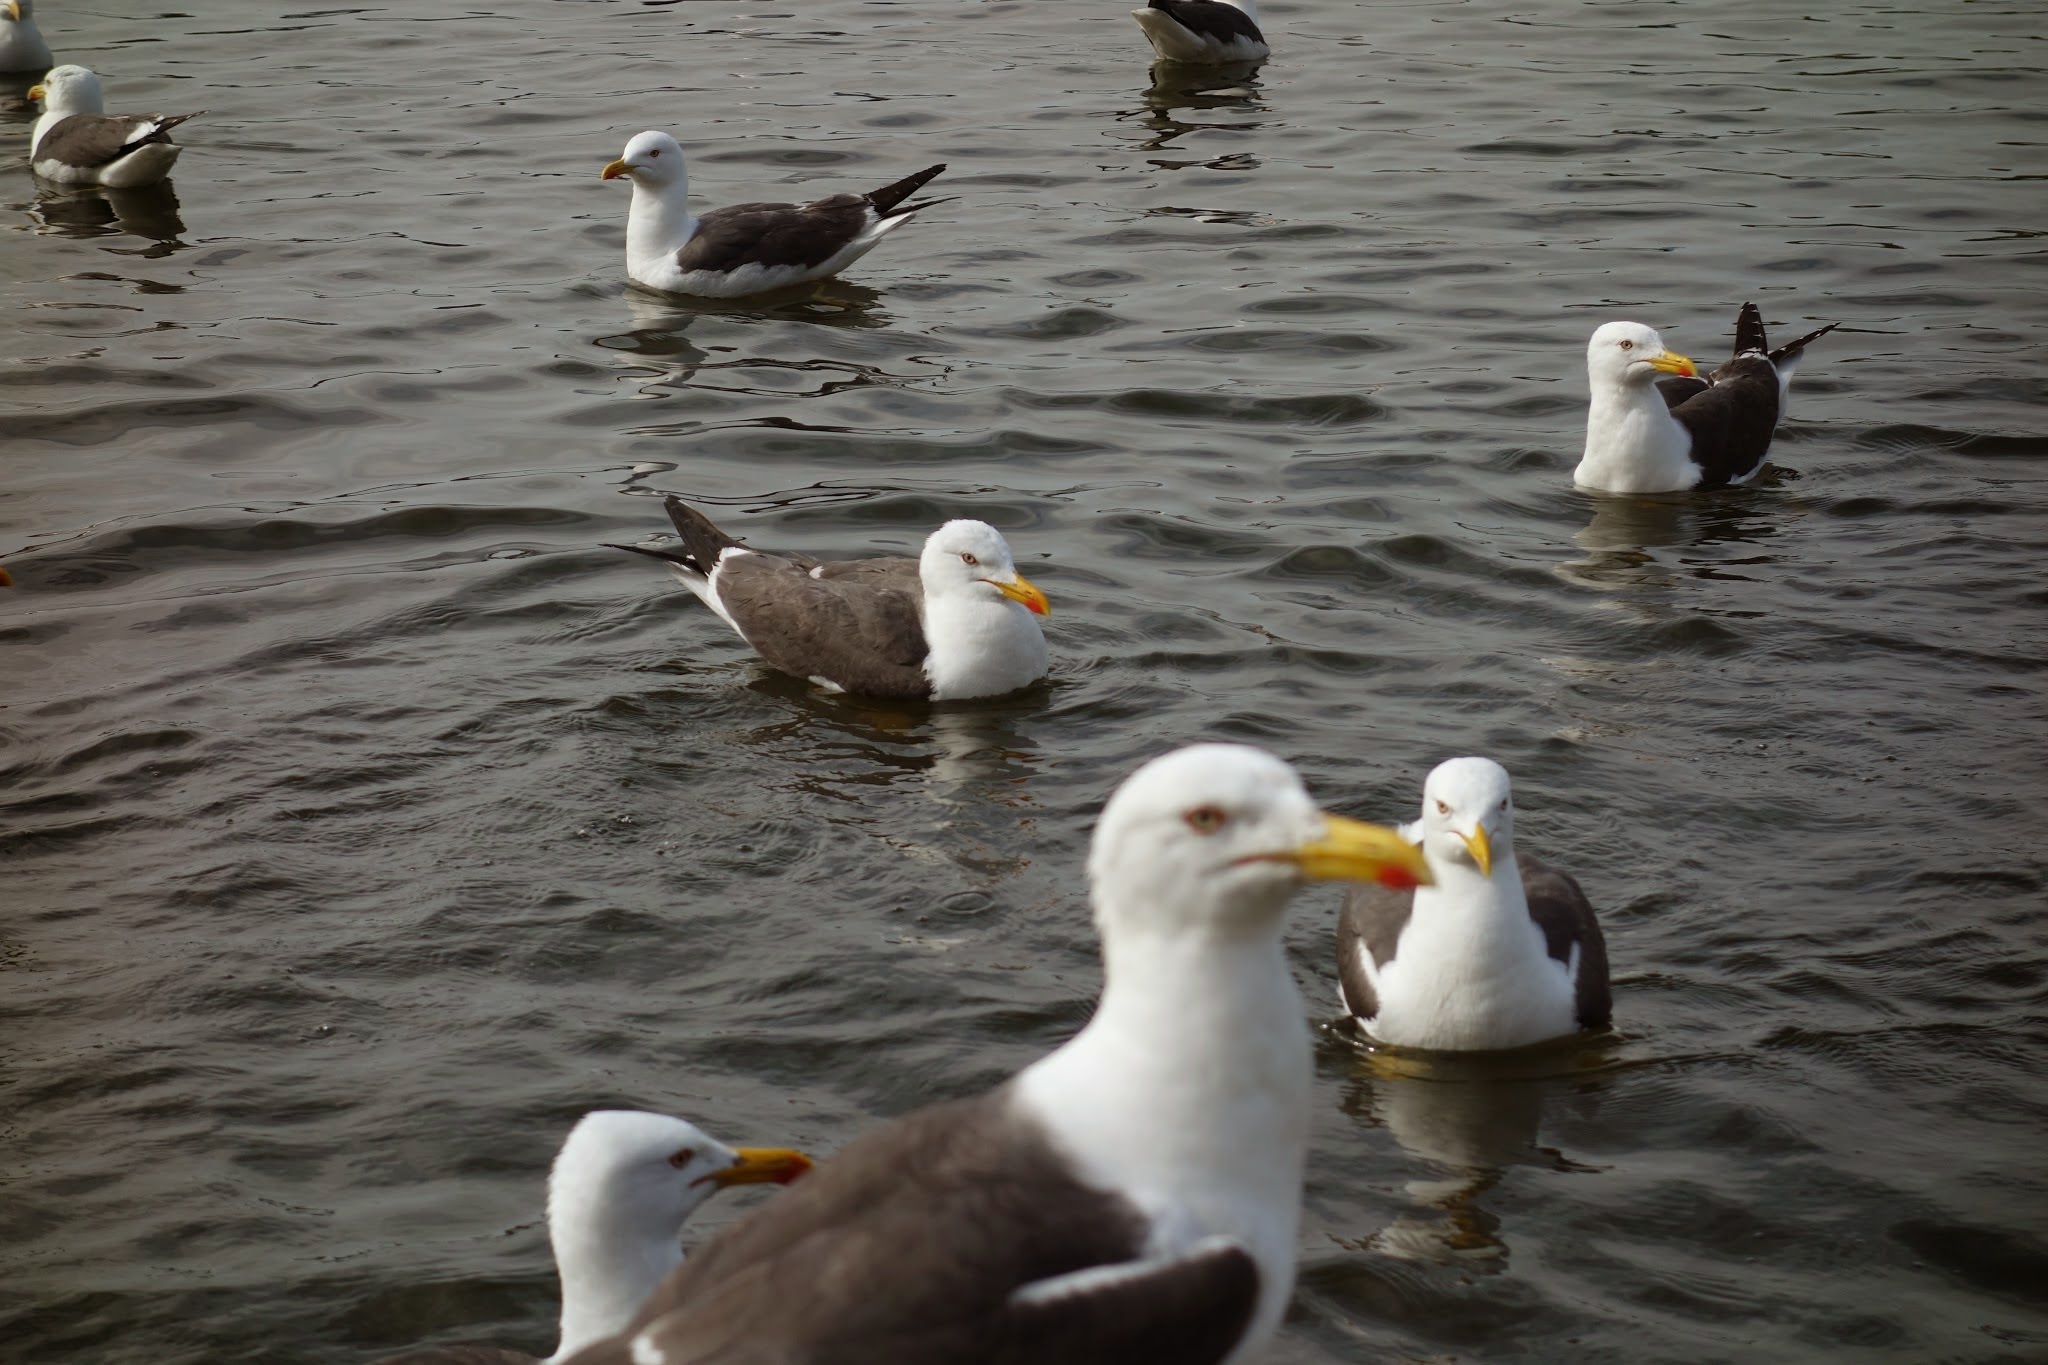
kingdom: Animalia
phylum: Chordata
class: Aves
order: Charadriiformes
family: Laridae
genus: Larus
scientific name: Larus fuscus
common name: Lesser black-backed gull
